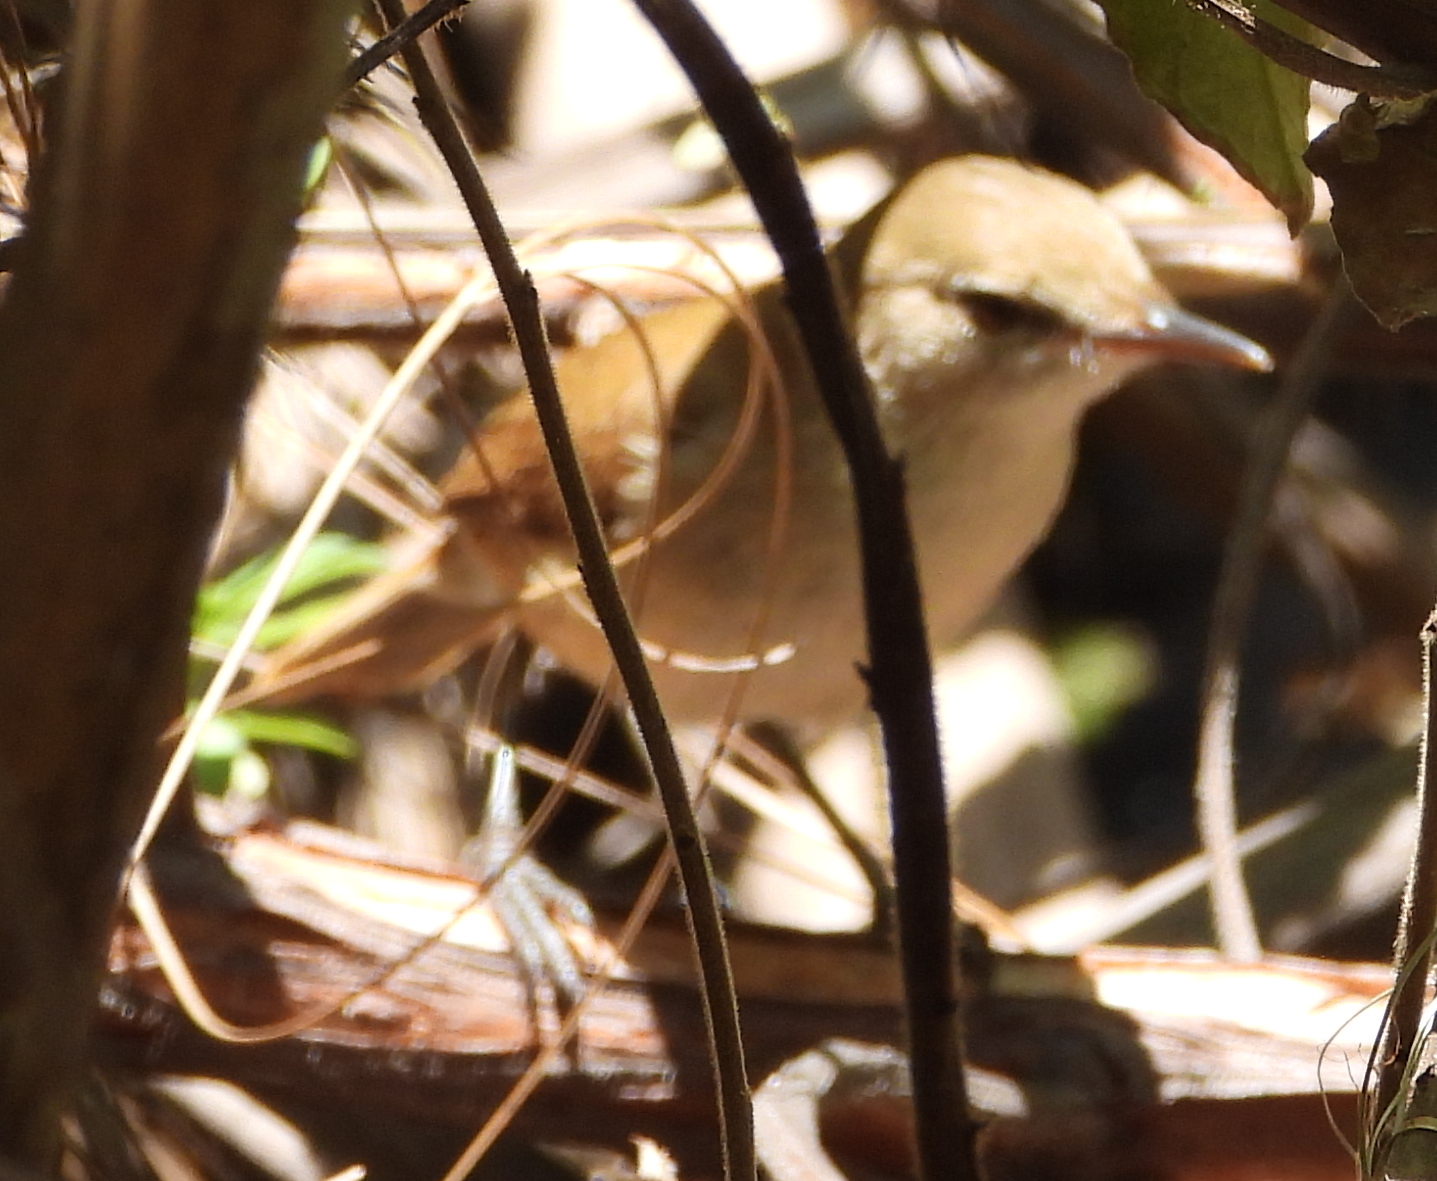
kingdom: Animalia
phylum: Chordata
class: Aves
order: Passeriformes
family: Acrocephalidae
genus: Acrocephalus
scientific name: Acrocephalus gracilirostris
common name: Lesser swamp warbler
